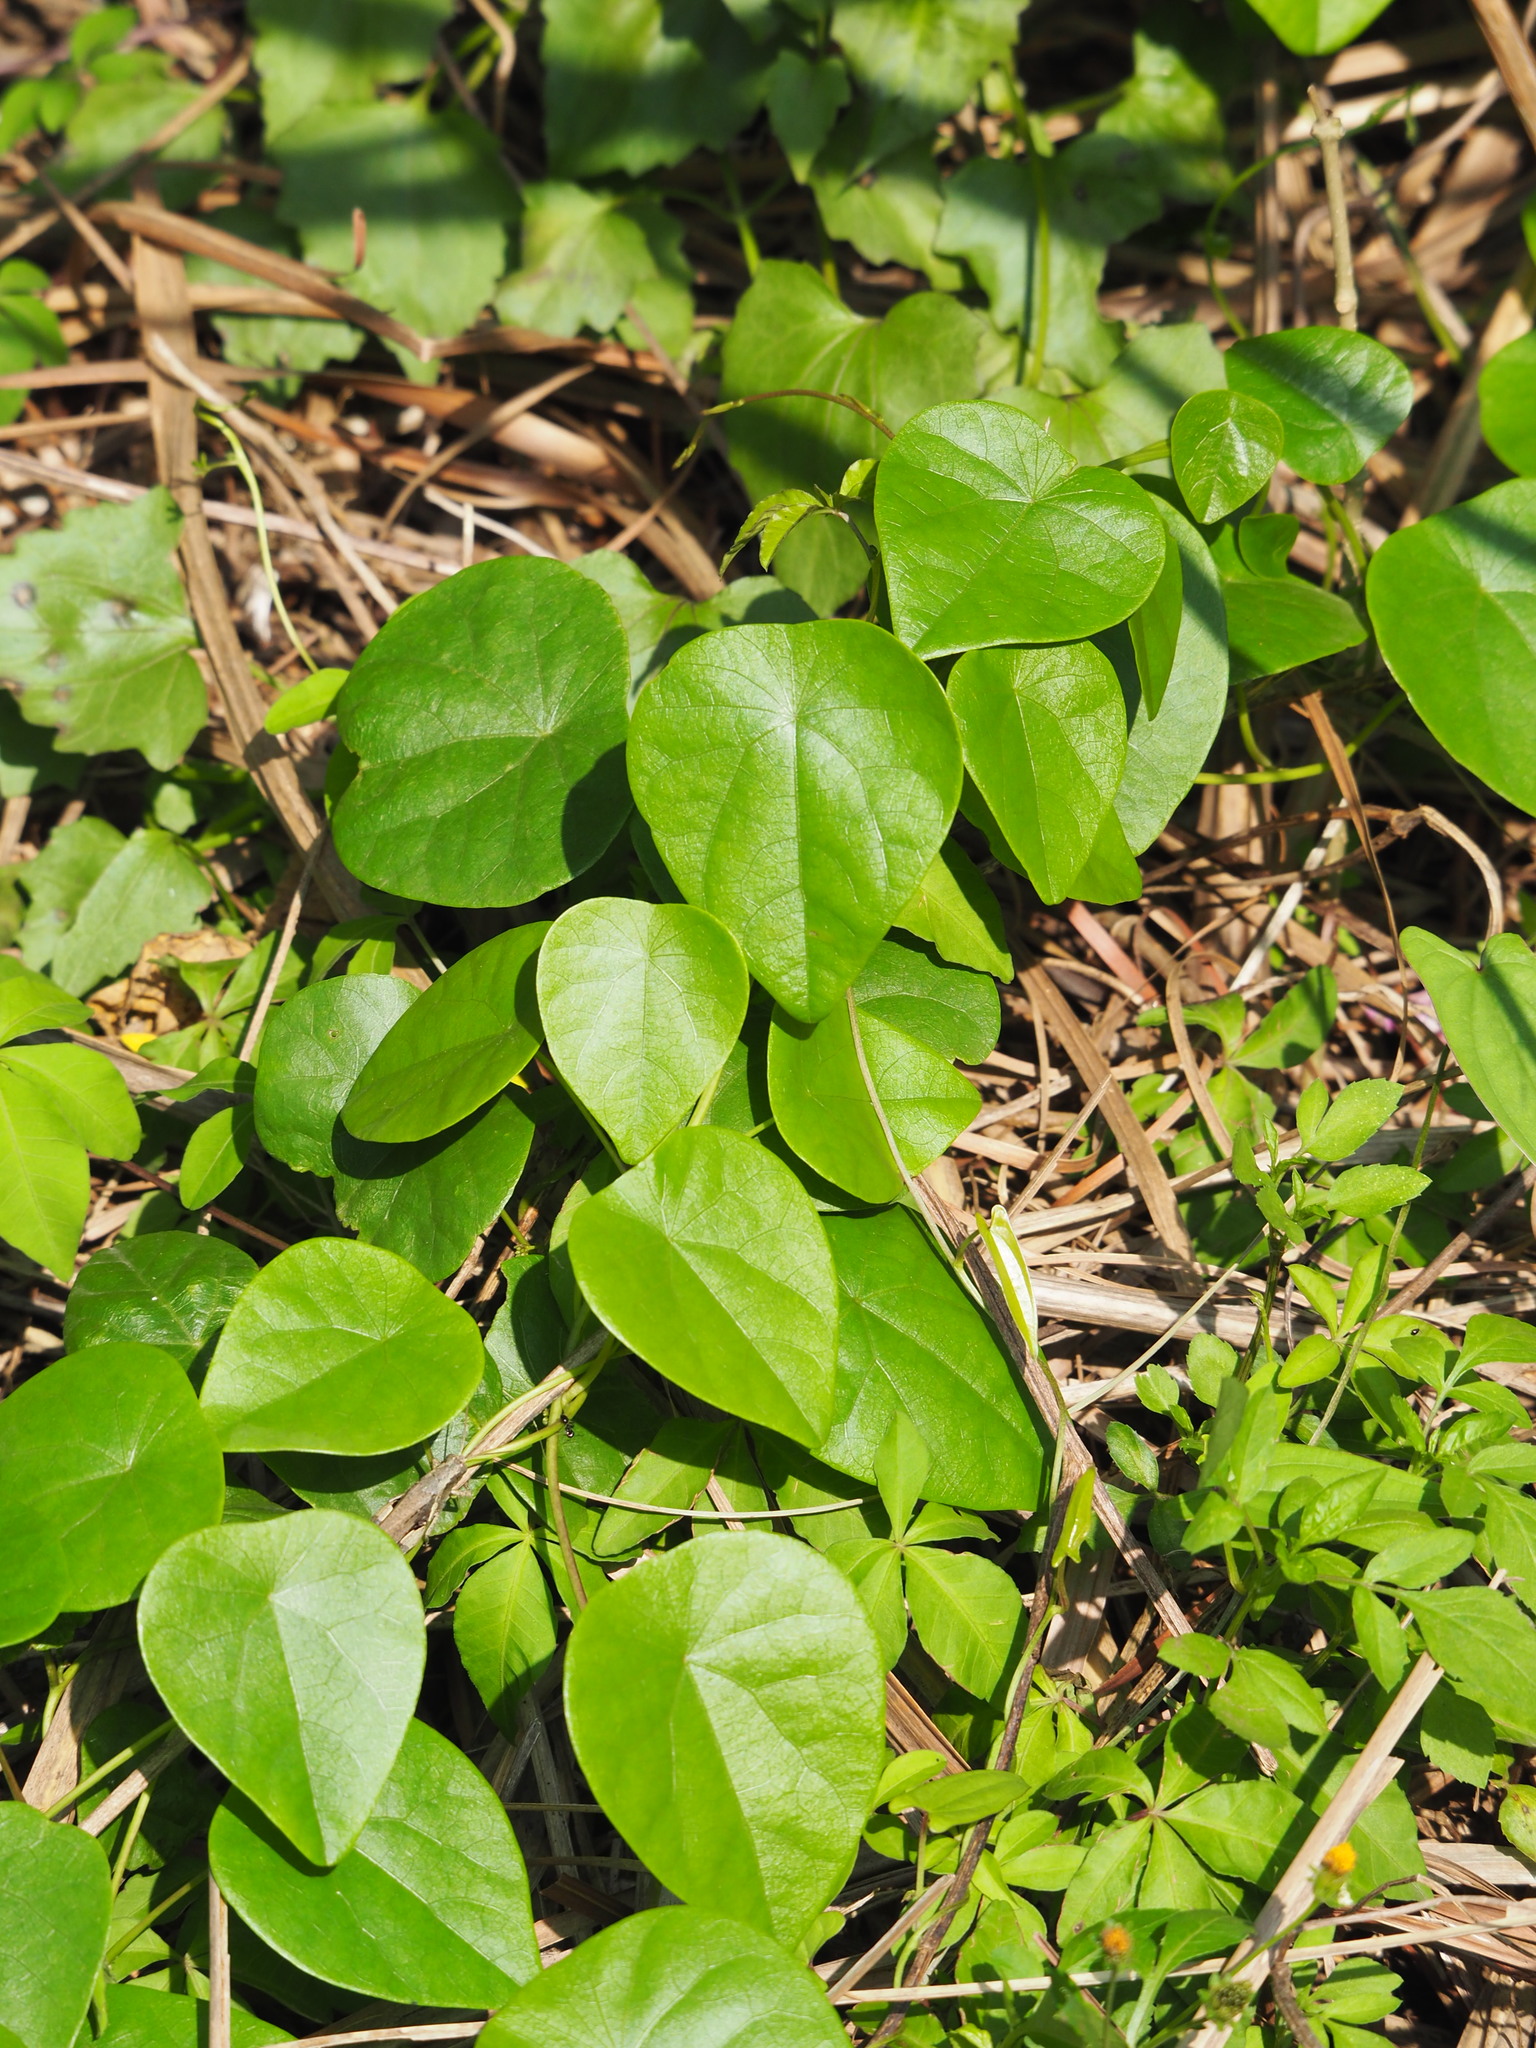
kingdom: Plantae
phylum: Tracheophyta
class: Magnoliopsida
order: Ranunculales
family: Menispermaceae
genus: Stephania
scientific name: Stephania japonica
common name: Snake vine
